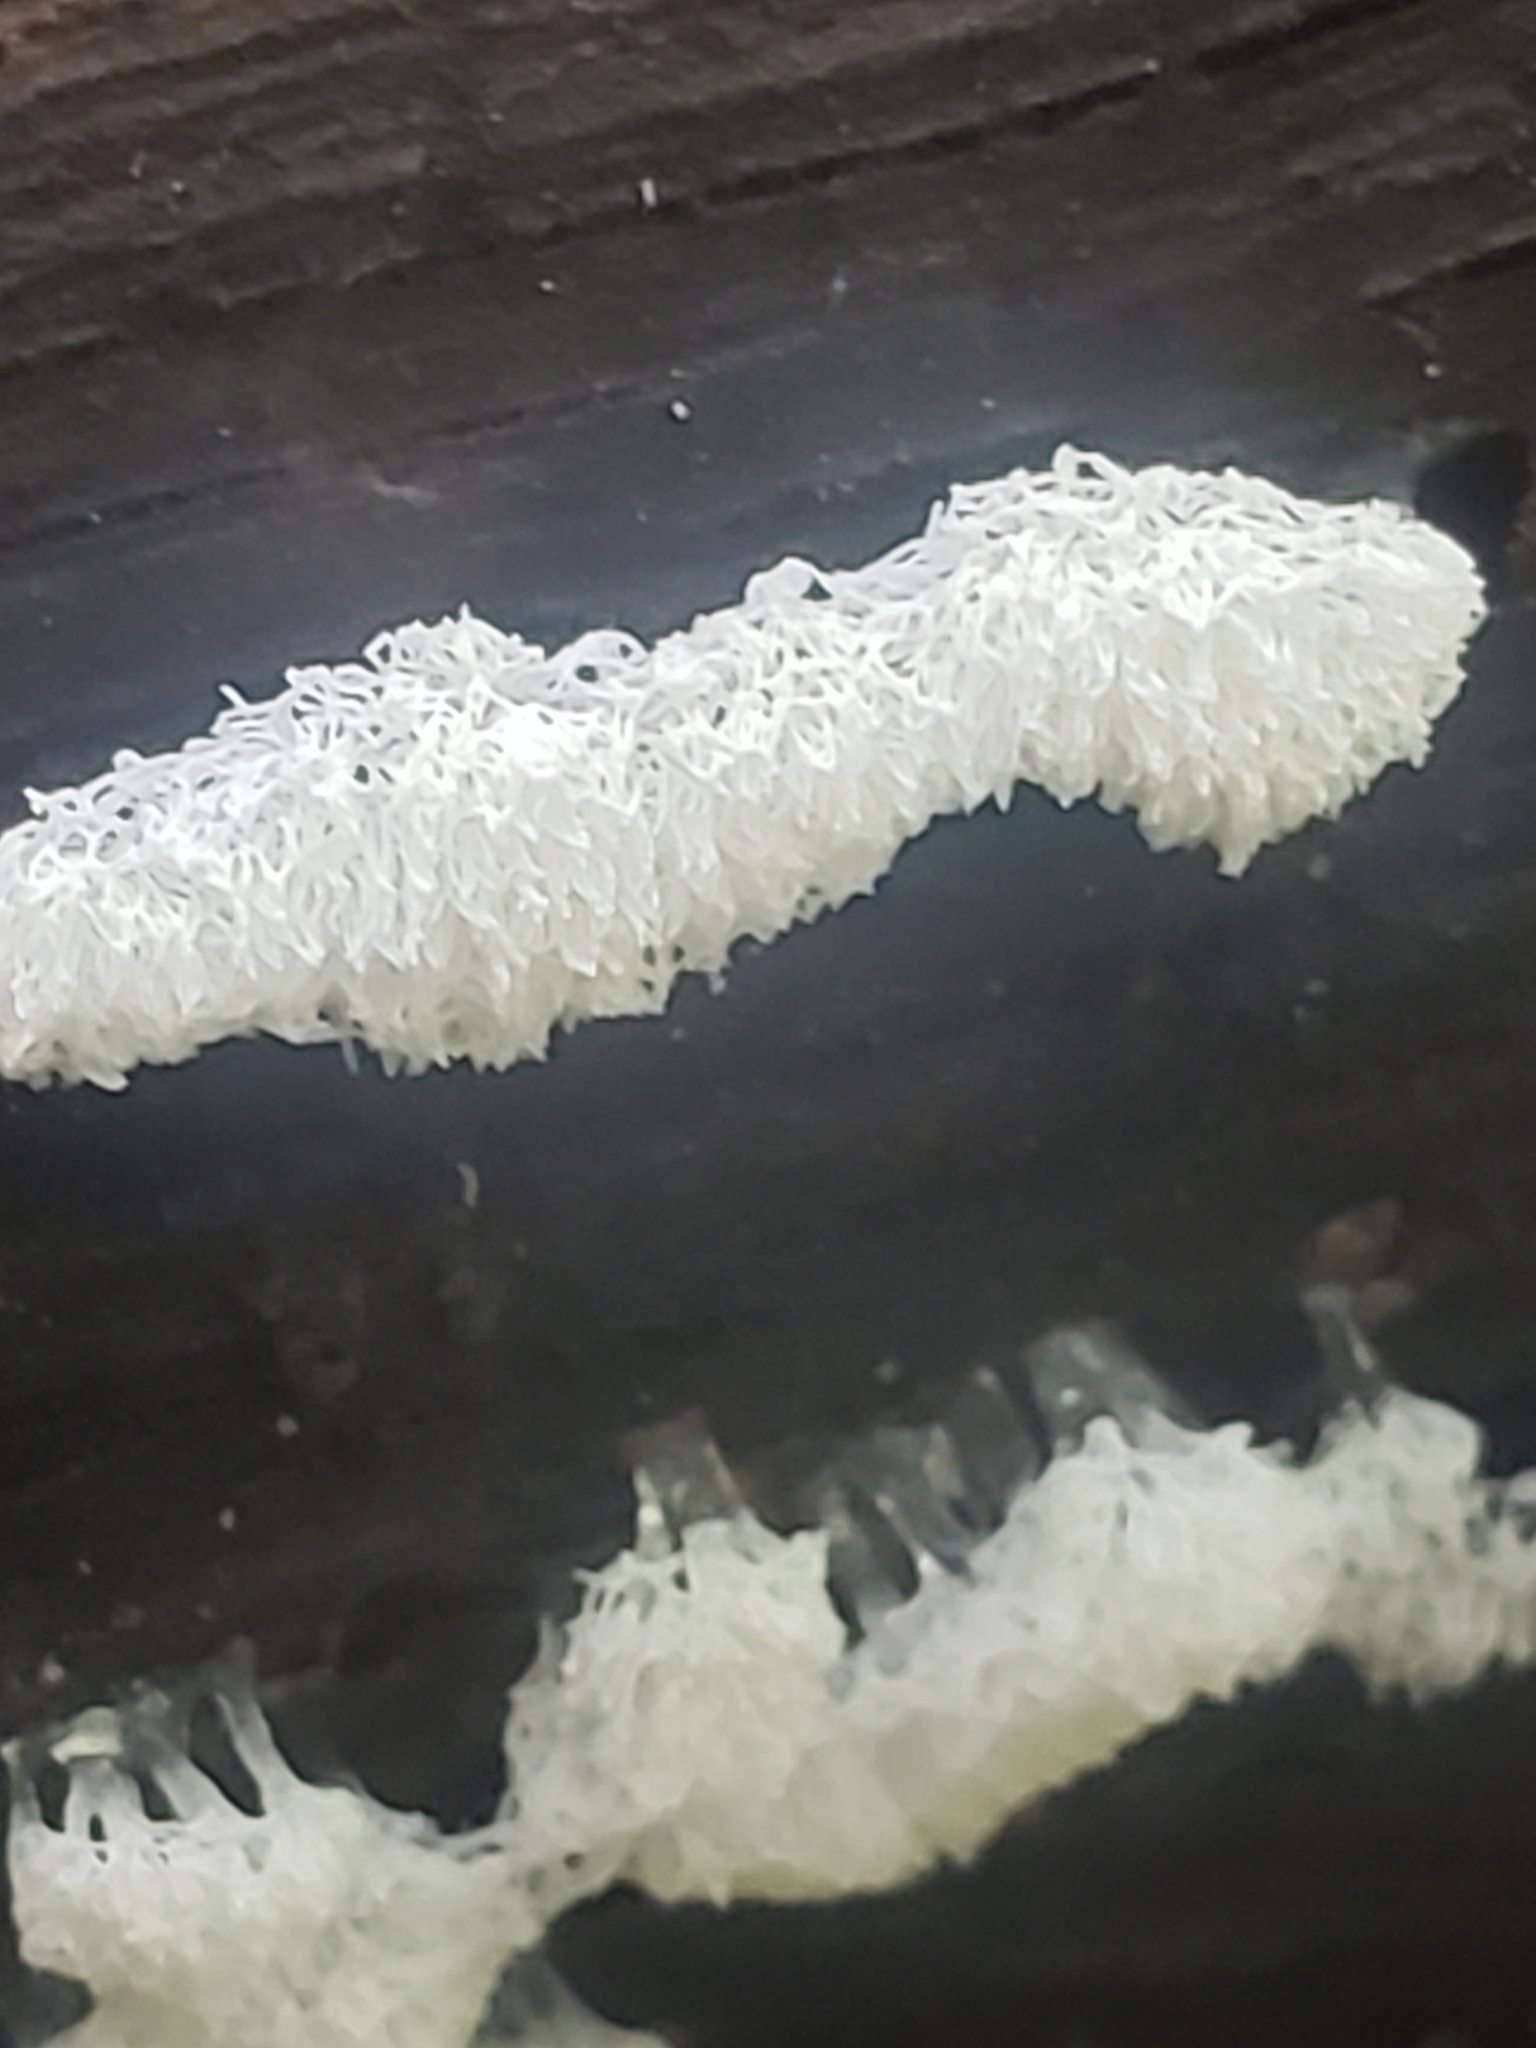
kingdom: Protozoa
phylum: Mycetozoa
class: Protosteliomycetes
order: Ceratiomyxales
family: Ceratiomyxaceae
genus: Ceratiomyxa
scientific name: Ceratiomyxa fruticulosa
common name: Honeycomb coral slime mold
